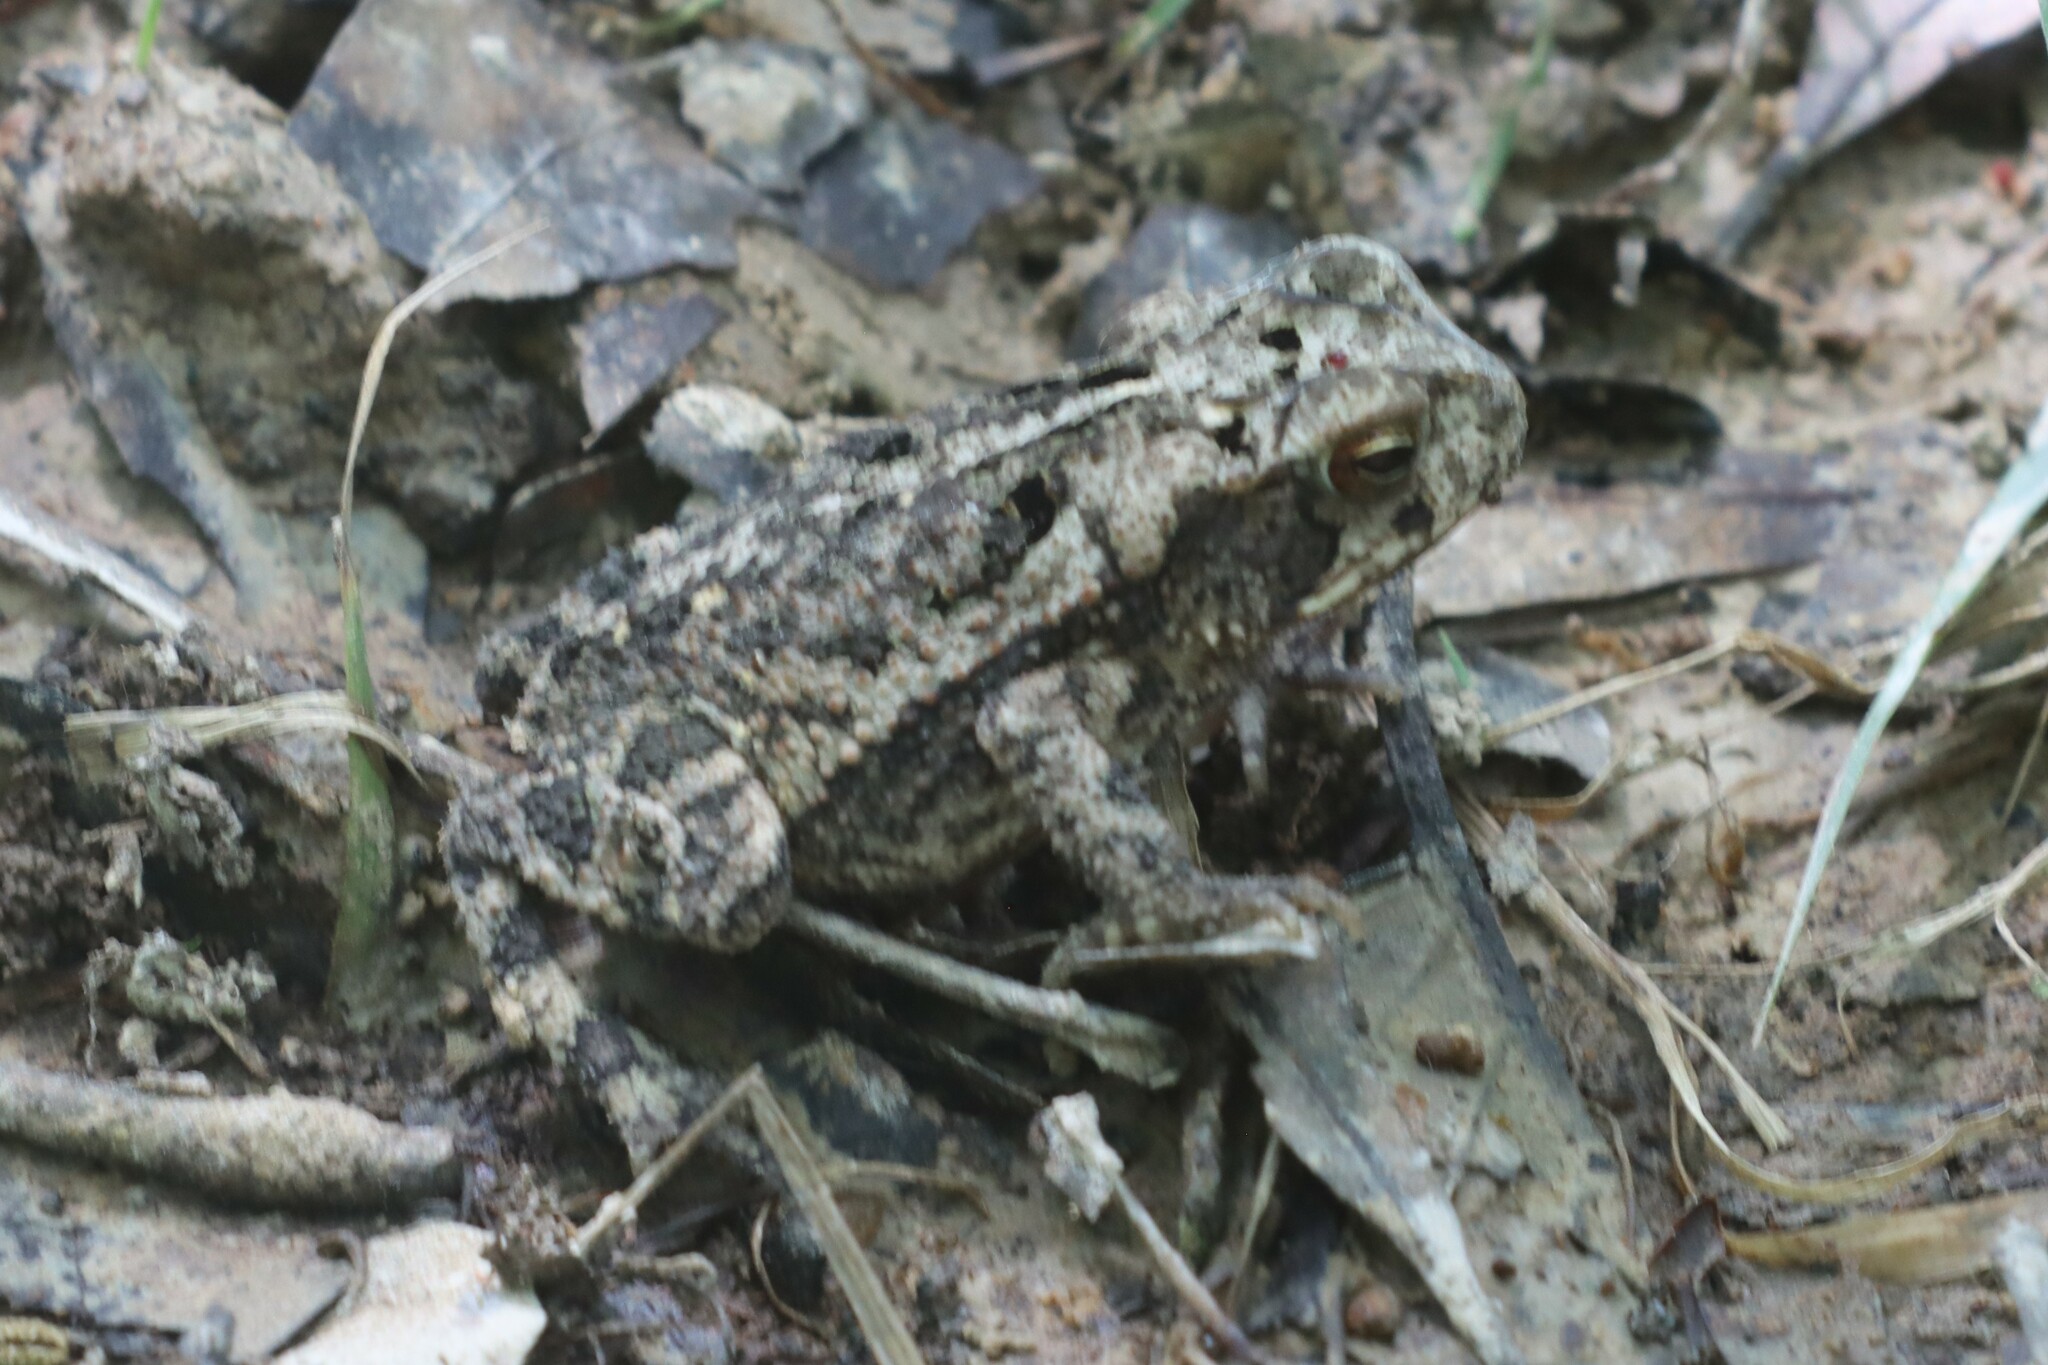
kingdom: Animalia
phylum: Chordata
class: Amphibia
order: Anura
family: Bufonidae
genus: Incilius
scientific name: Incilius nebulifer
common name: Gulf coast toad
